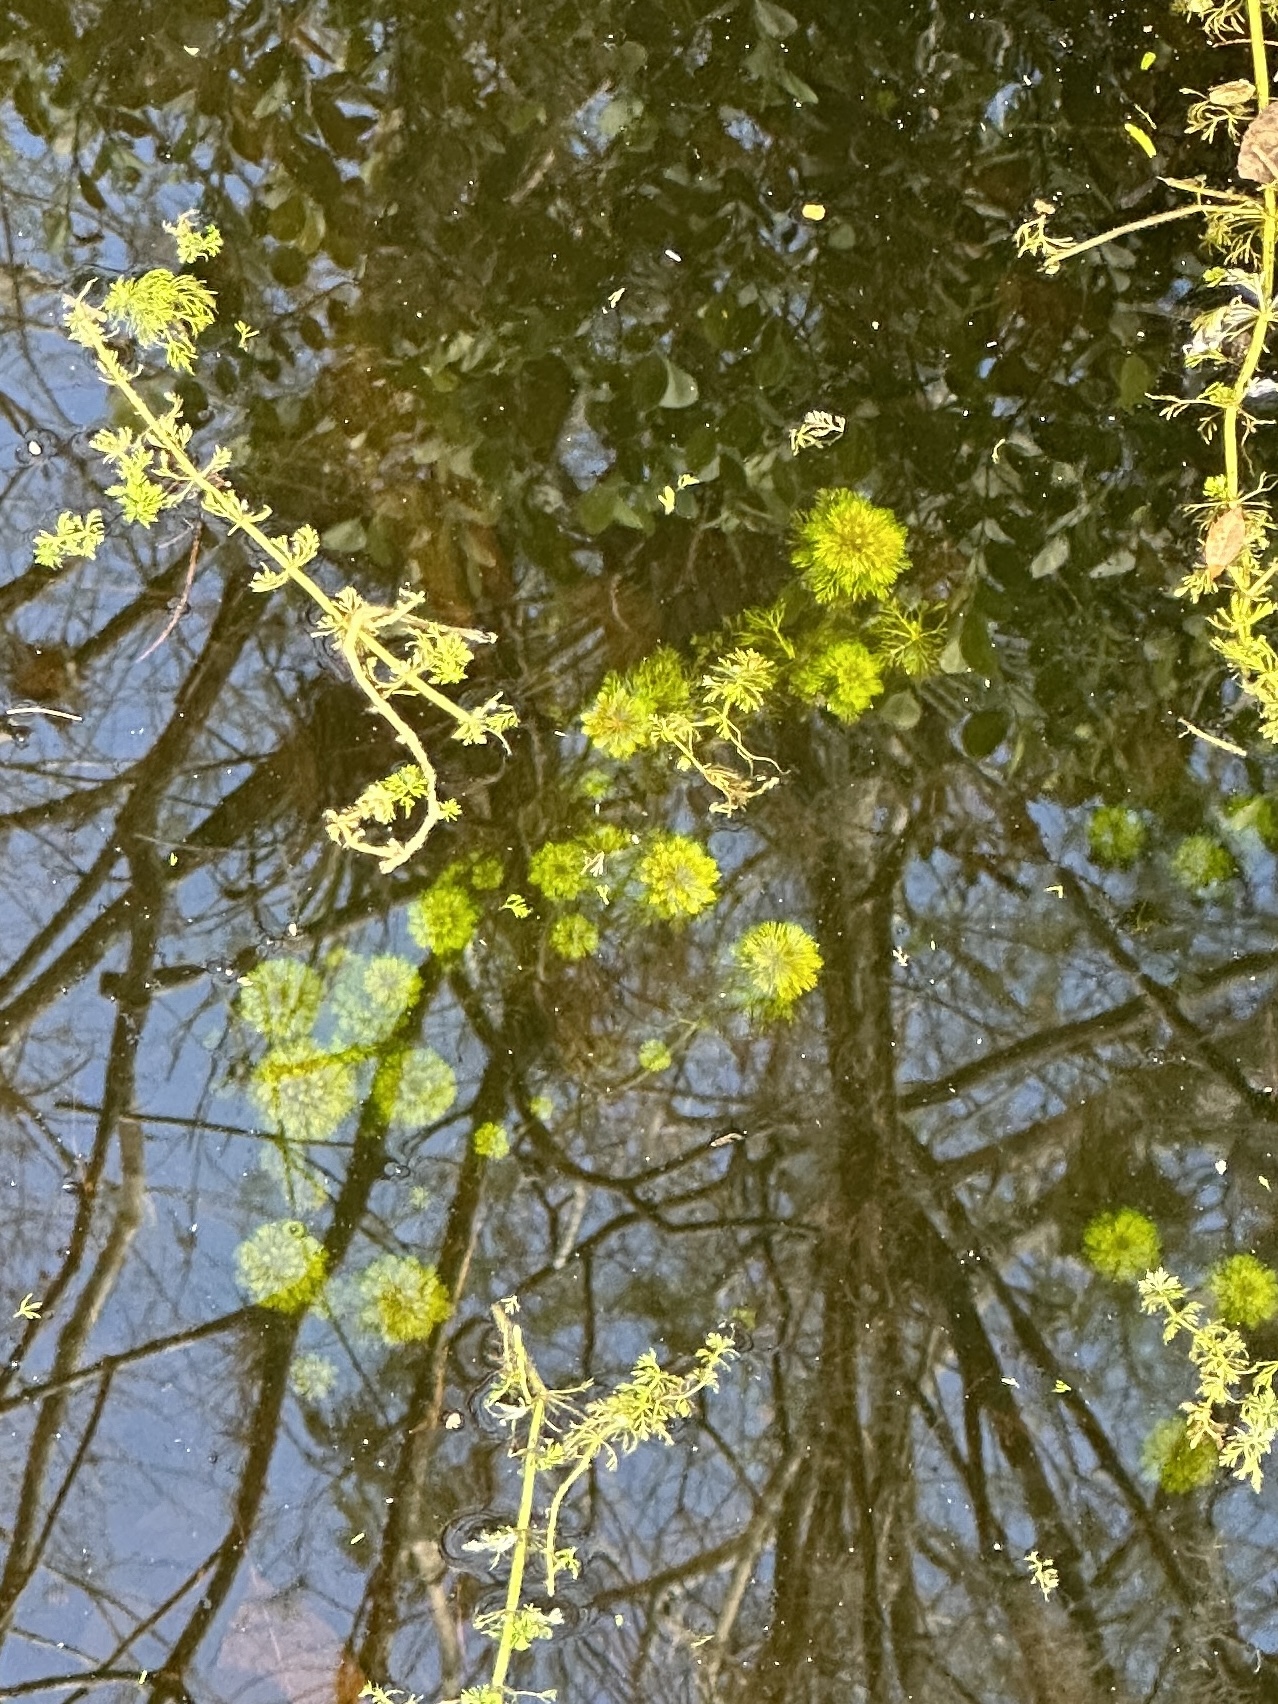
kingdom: Plantae
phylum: Tracheophyta
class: Magnoliopsida
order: Lamiales
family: Plantaginaceae
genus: Limnophila
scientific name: Limnophila sessiliflora
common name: Asian marshweed
